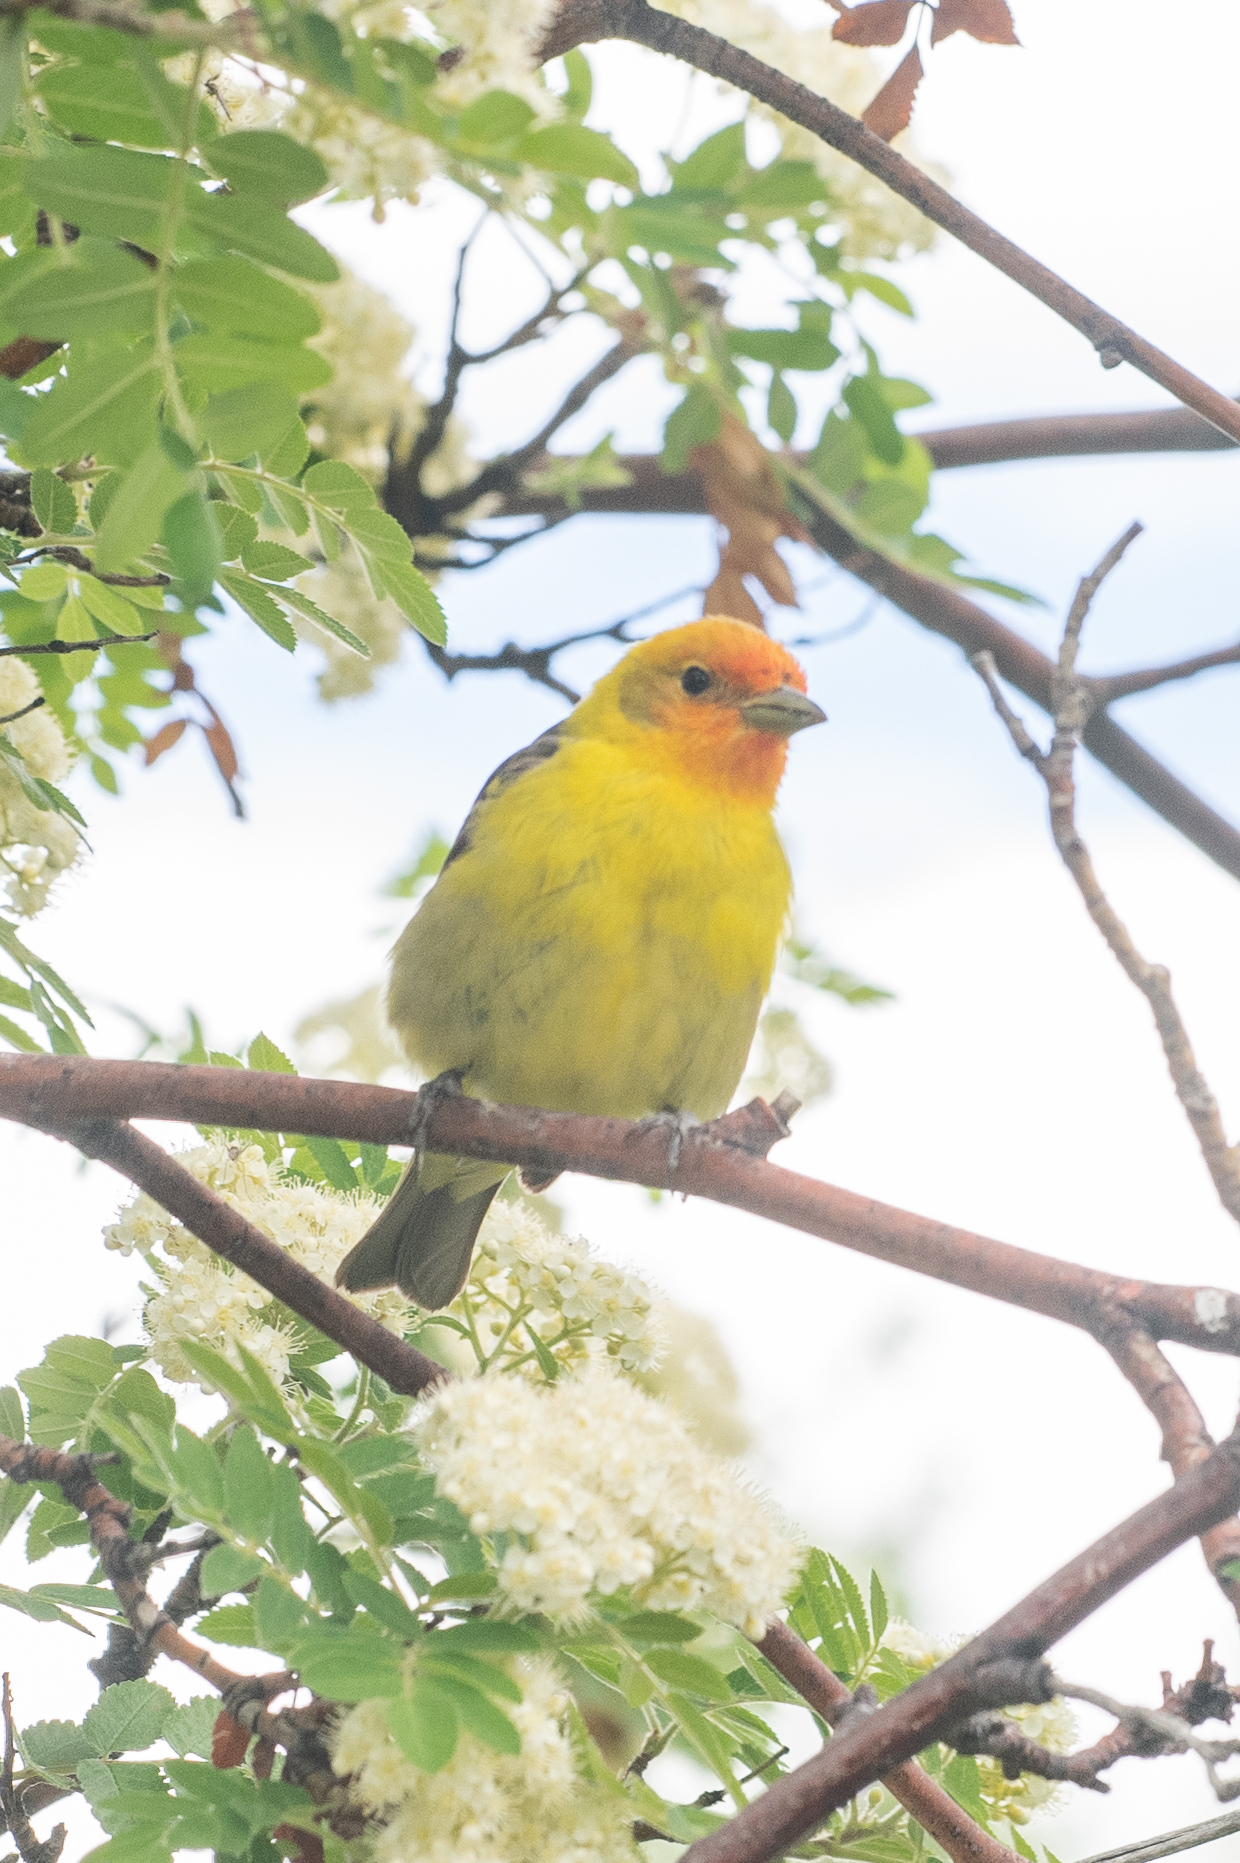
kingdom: Animalia
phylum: Chordata
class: Aves
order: Passeriformes
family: Cardinalidae
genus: Piranga
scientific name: Piranga ludoviciana
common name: Western tanager
